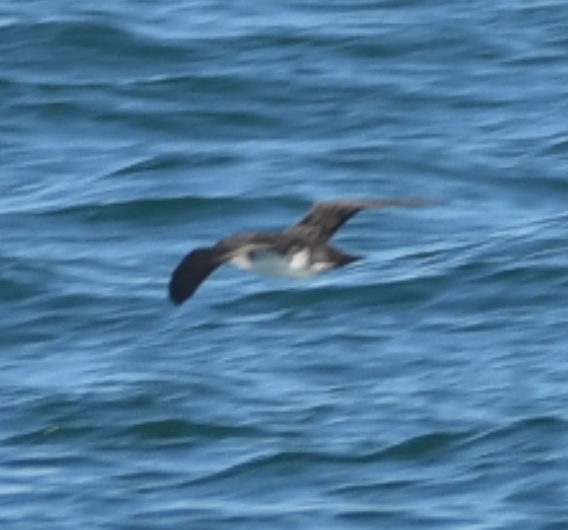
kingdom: Animalia
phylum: Chordata
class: Aves
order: Procellariiformes
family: Procellariidae
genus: Puffinus
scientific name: Puffinus opisthomelas
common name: Black-vented shearwater
